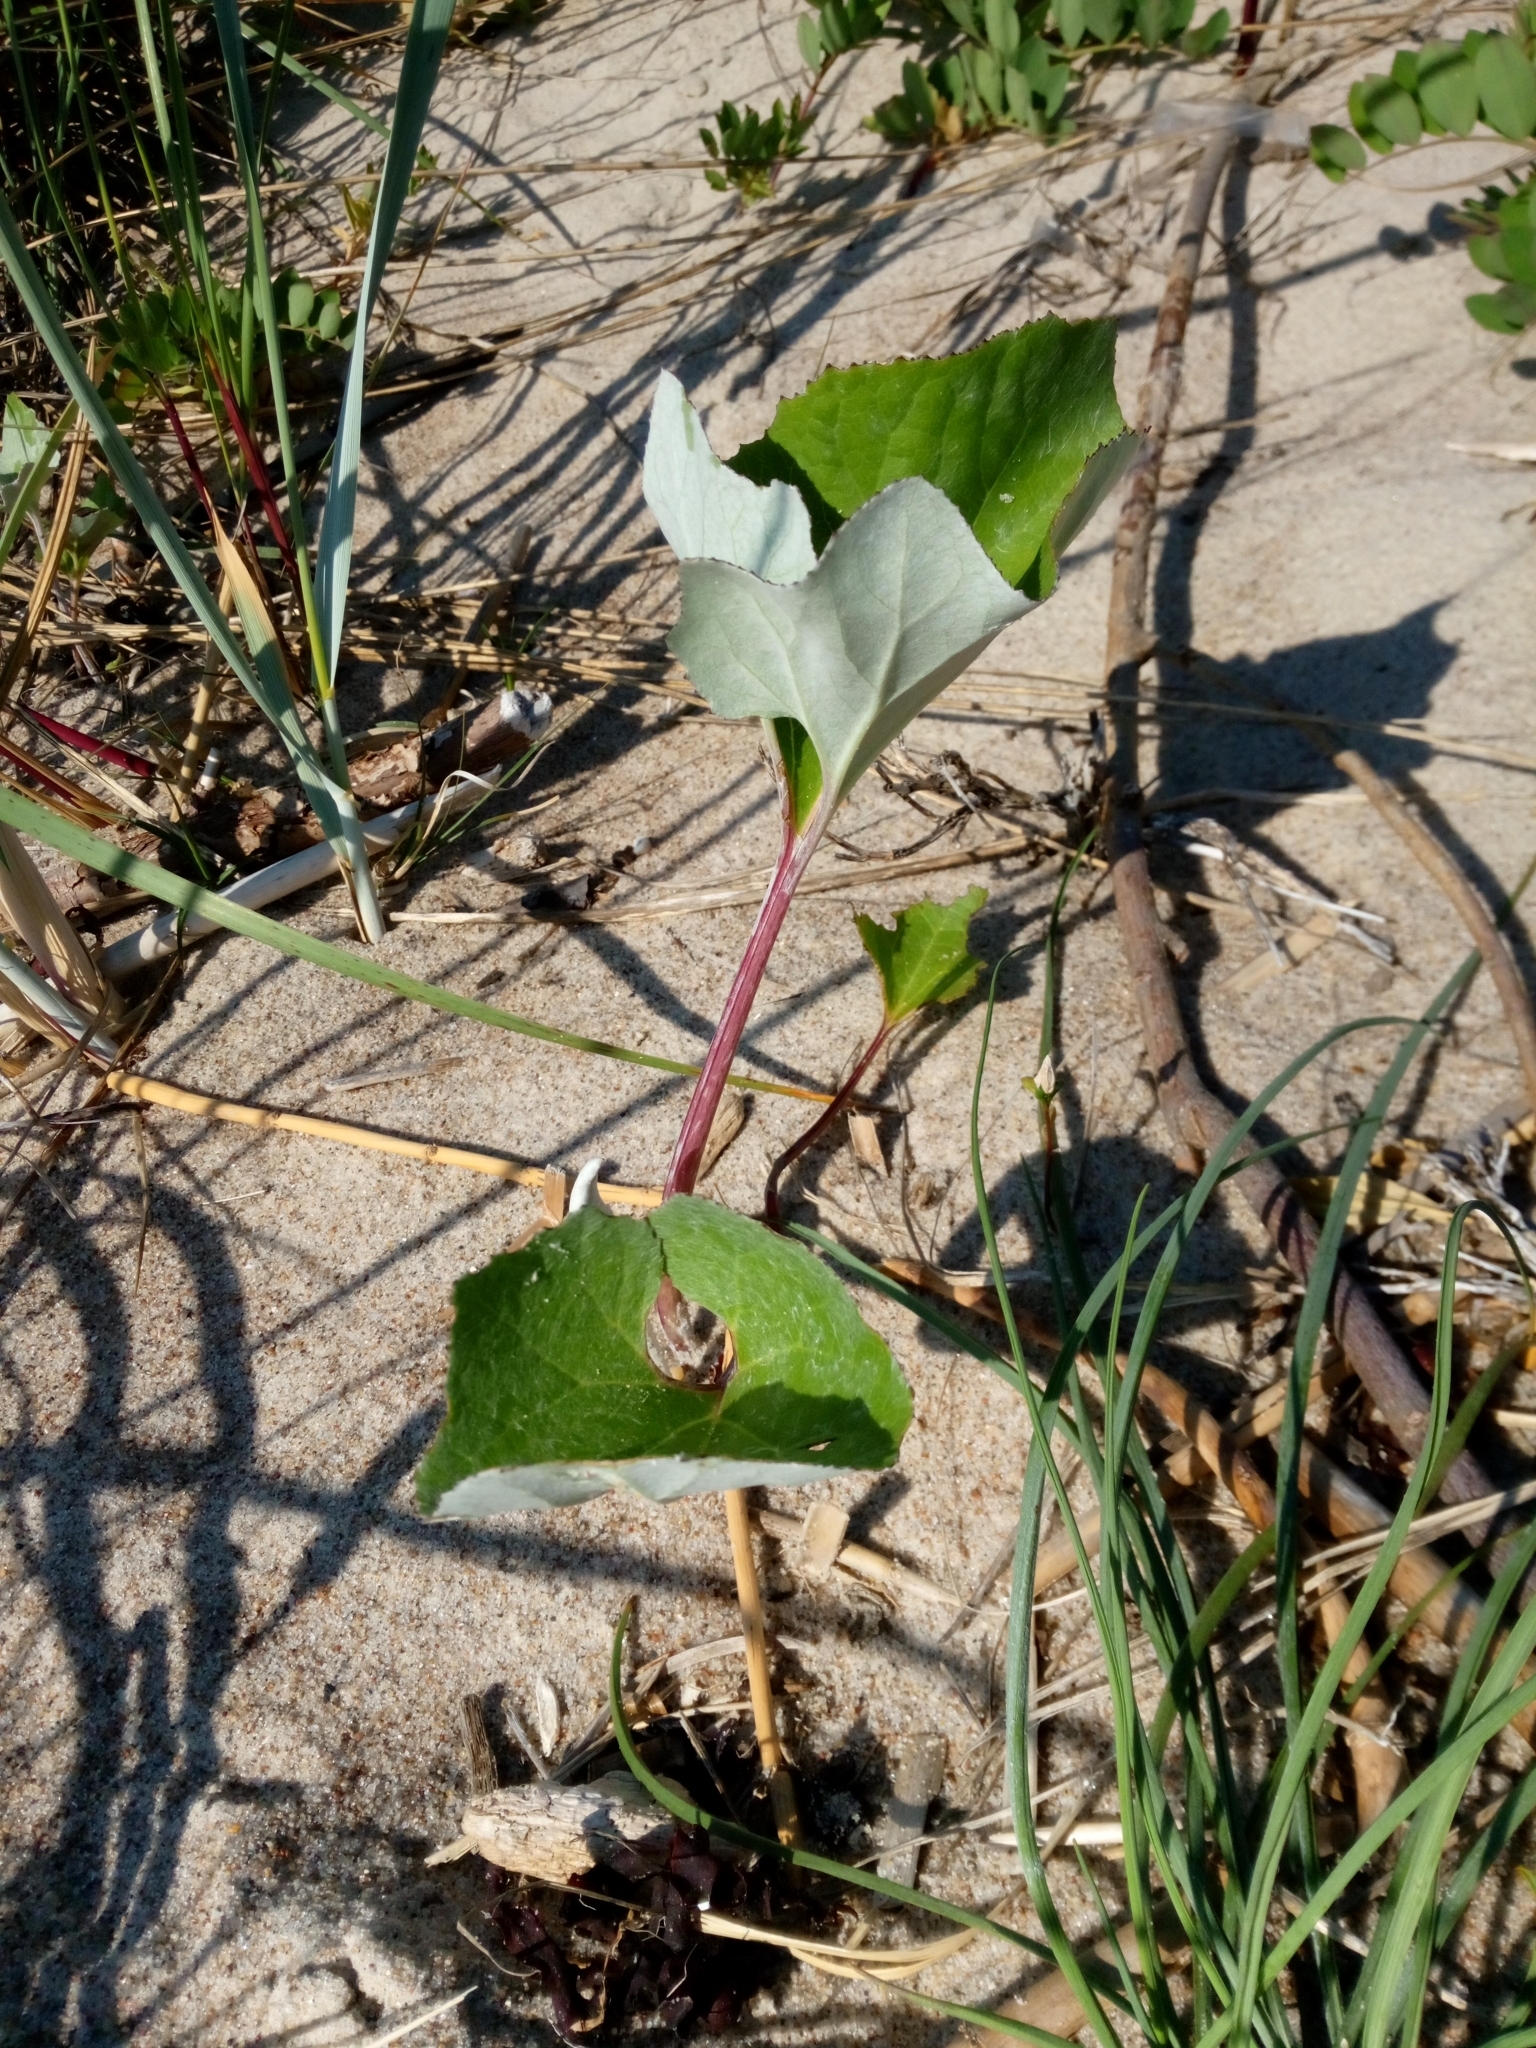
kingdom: Plantae
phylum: Tracheophyta
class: Magnoliopsida
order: Asterales
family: Asteraceae
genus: Petasites
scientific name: Petasites spurius
